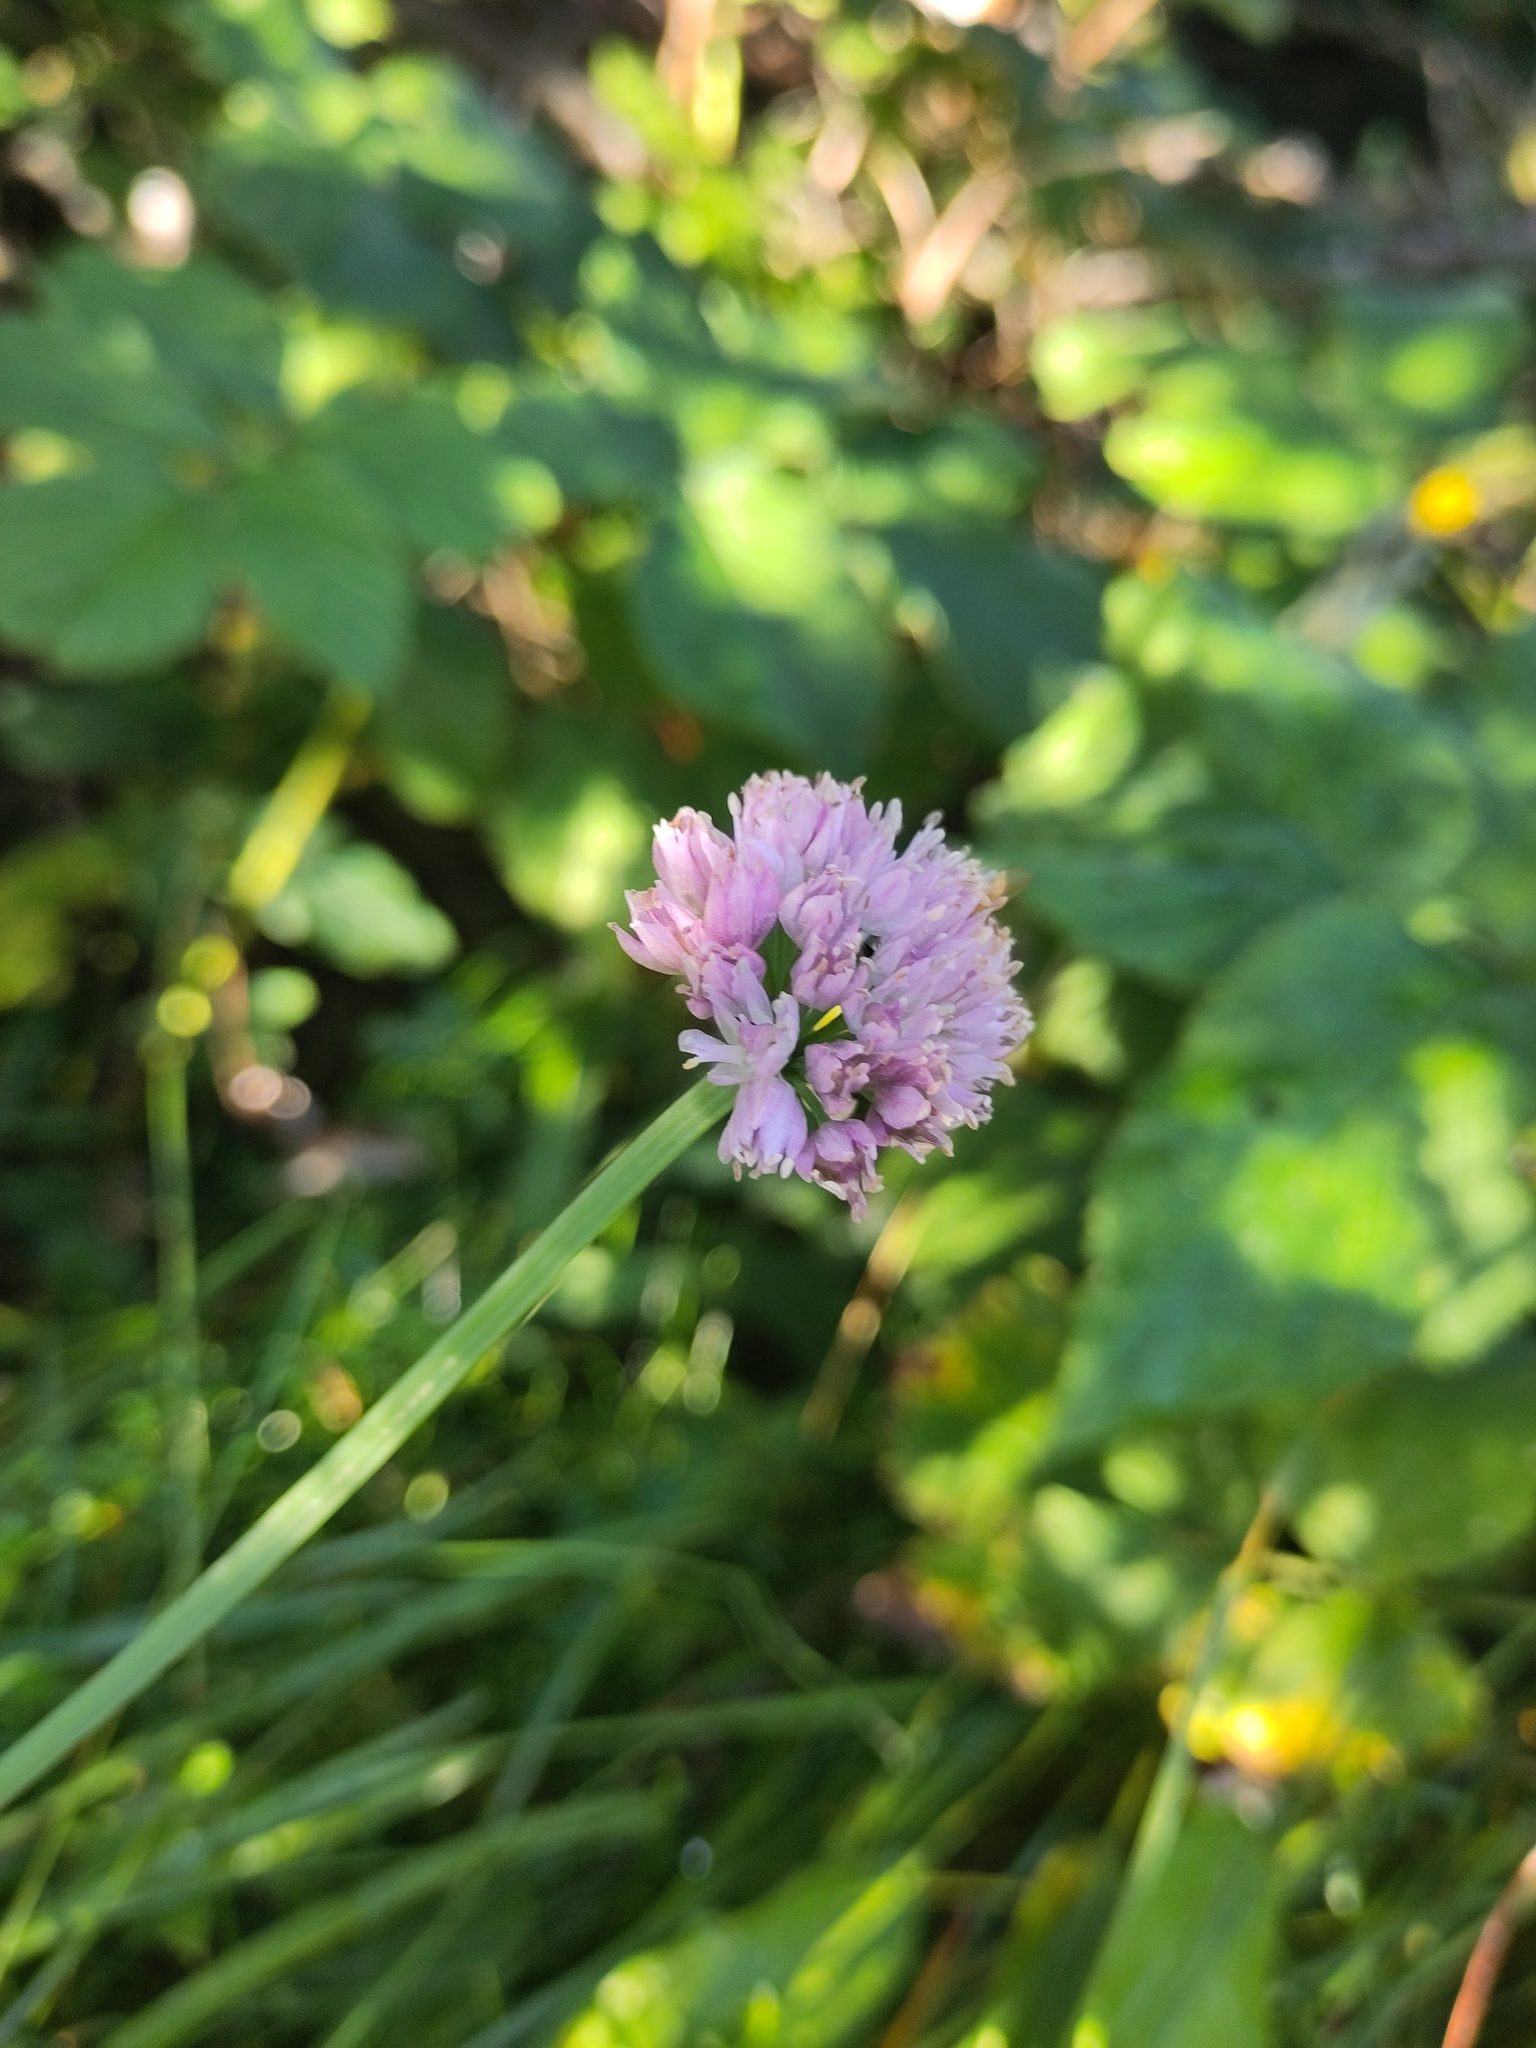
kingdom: Plantae
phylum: Tracheophyta
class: Liliopsida
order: Asparagales
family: Amaryllidaceae
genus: Allium
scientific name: Allium lusitanicum
